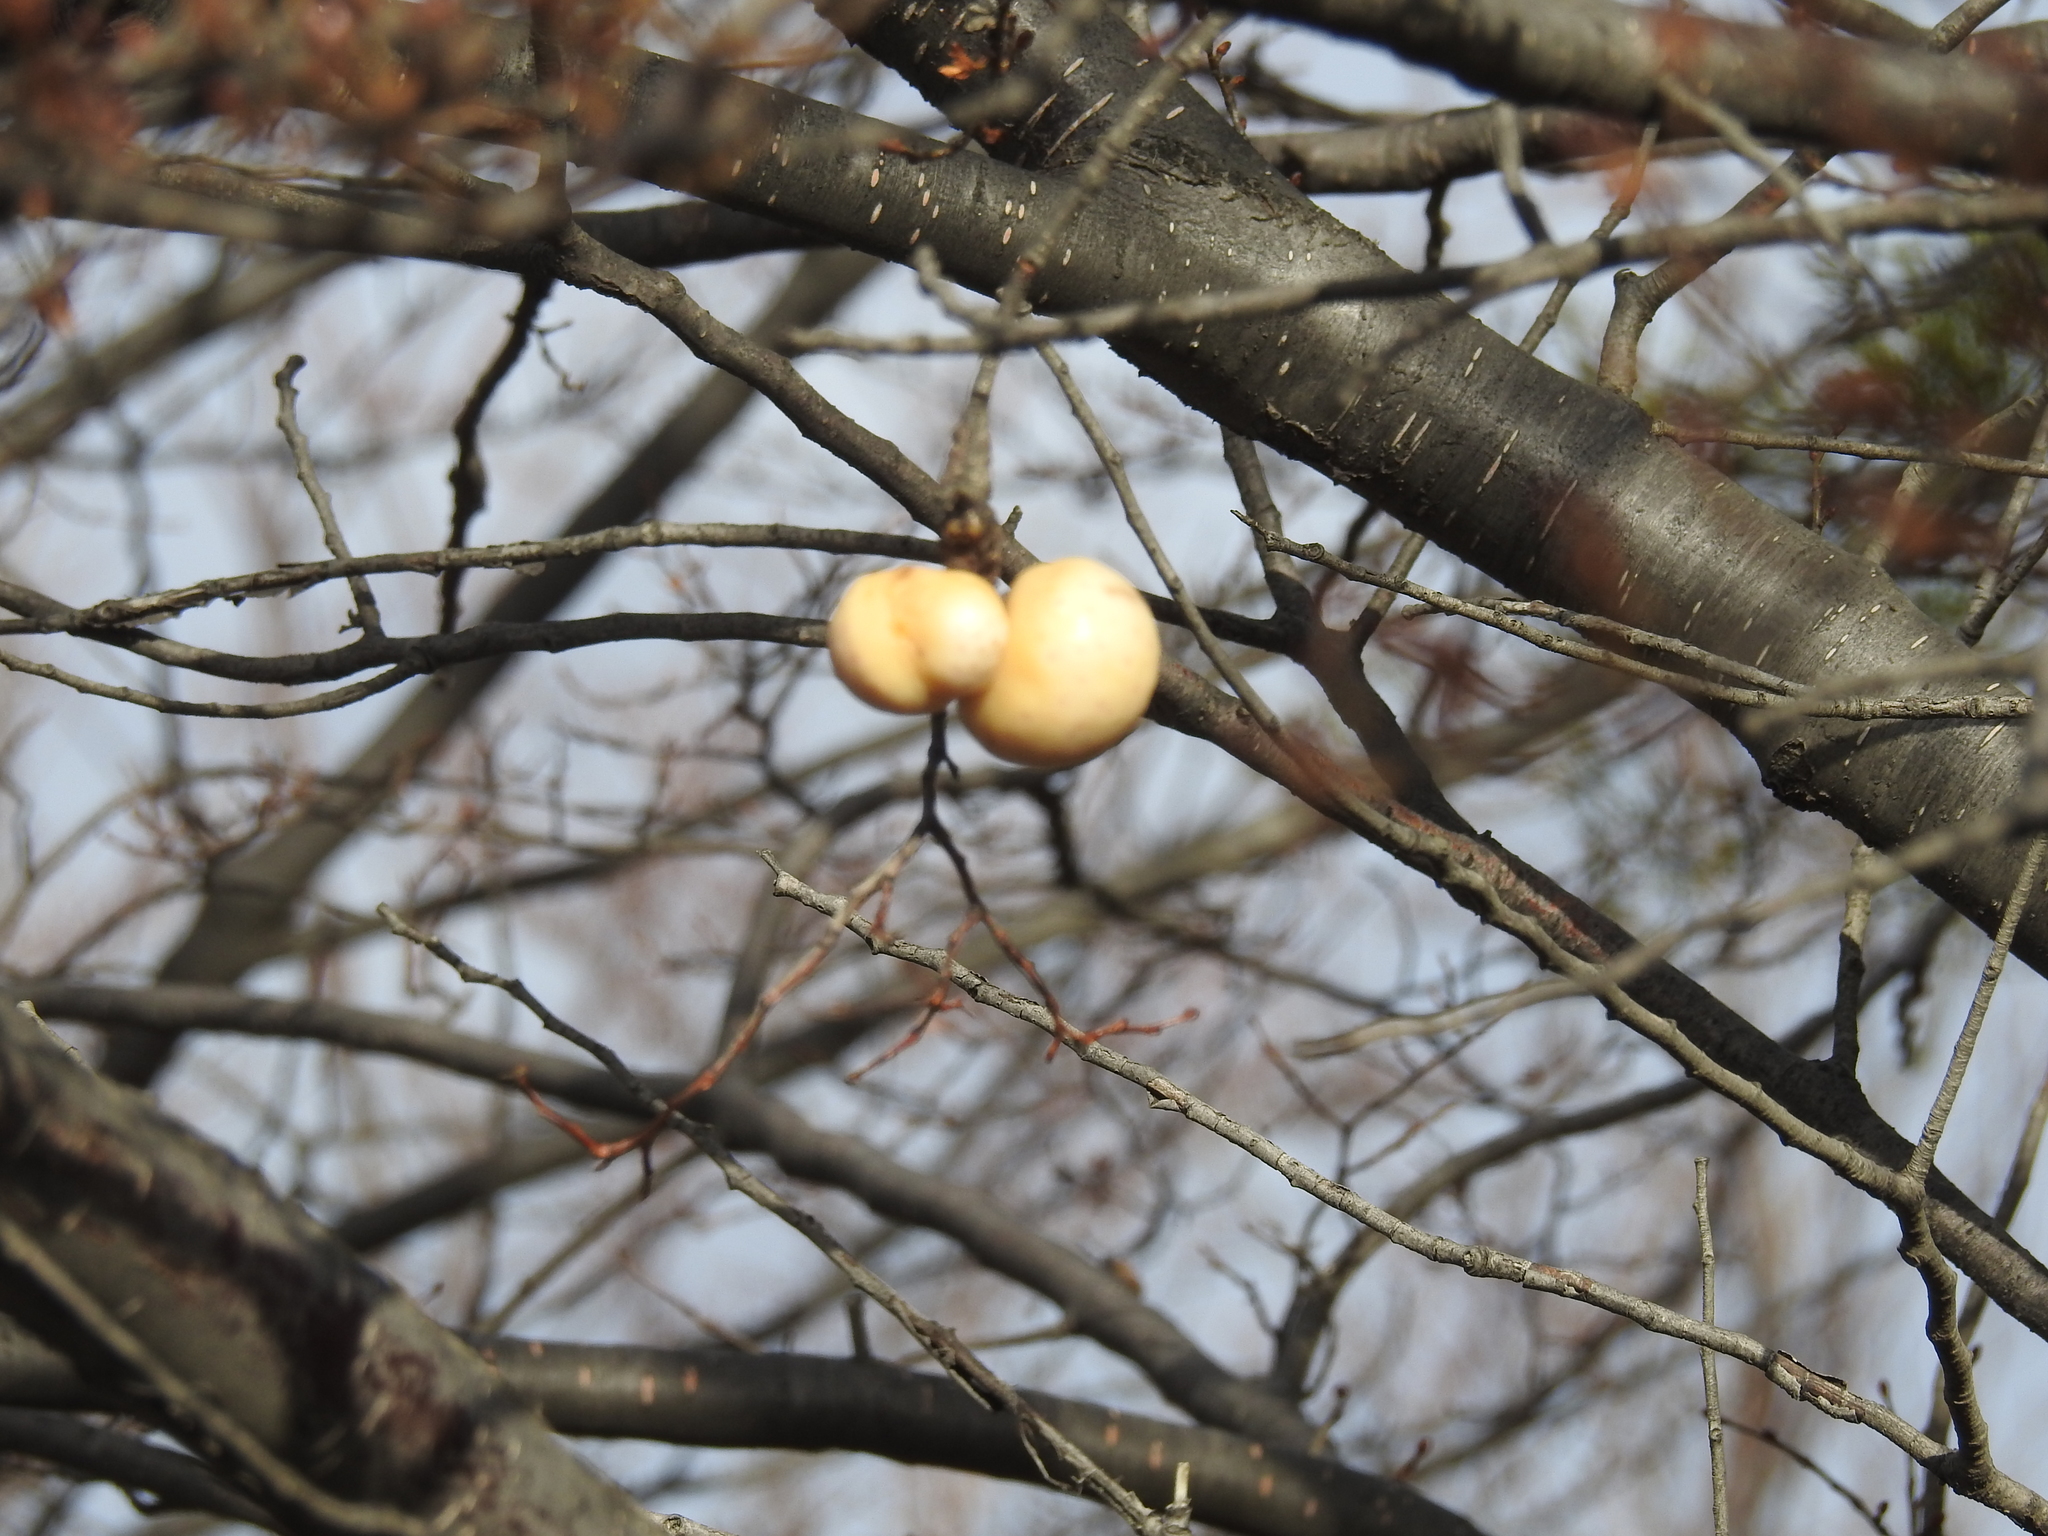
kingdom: Fungi
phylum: Ascomycota
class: Leotiomycetes
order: Cyttariales
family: Cyttariaceae
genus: Cyttaria
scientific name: Cyttaria darwinii
